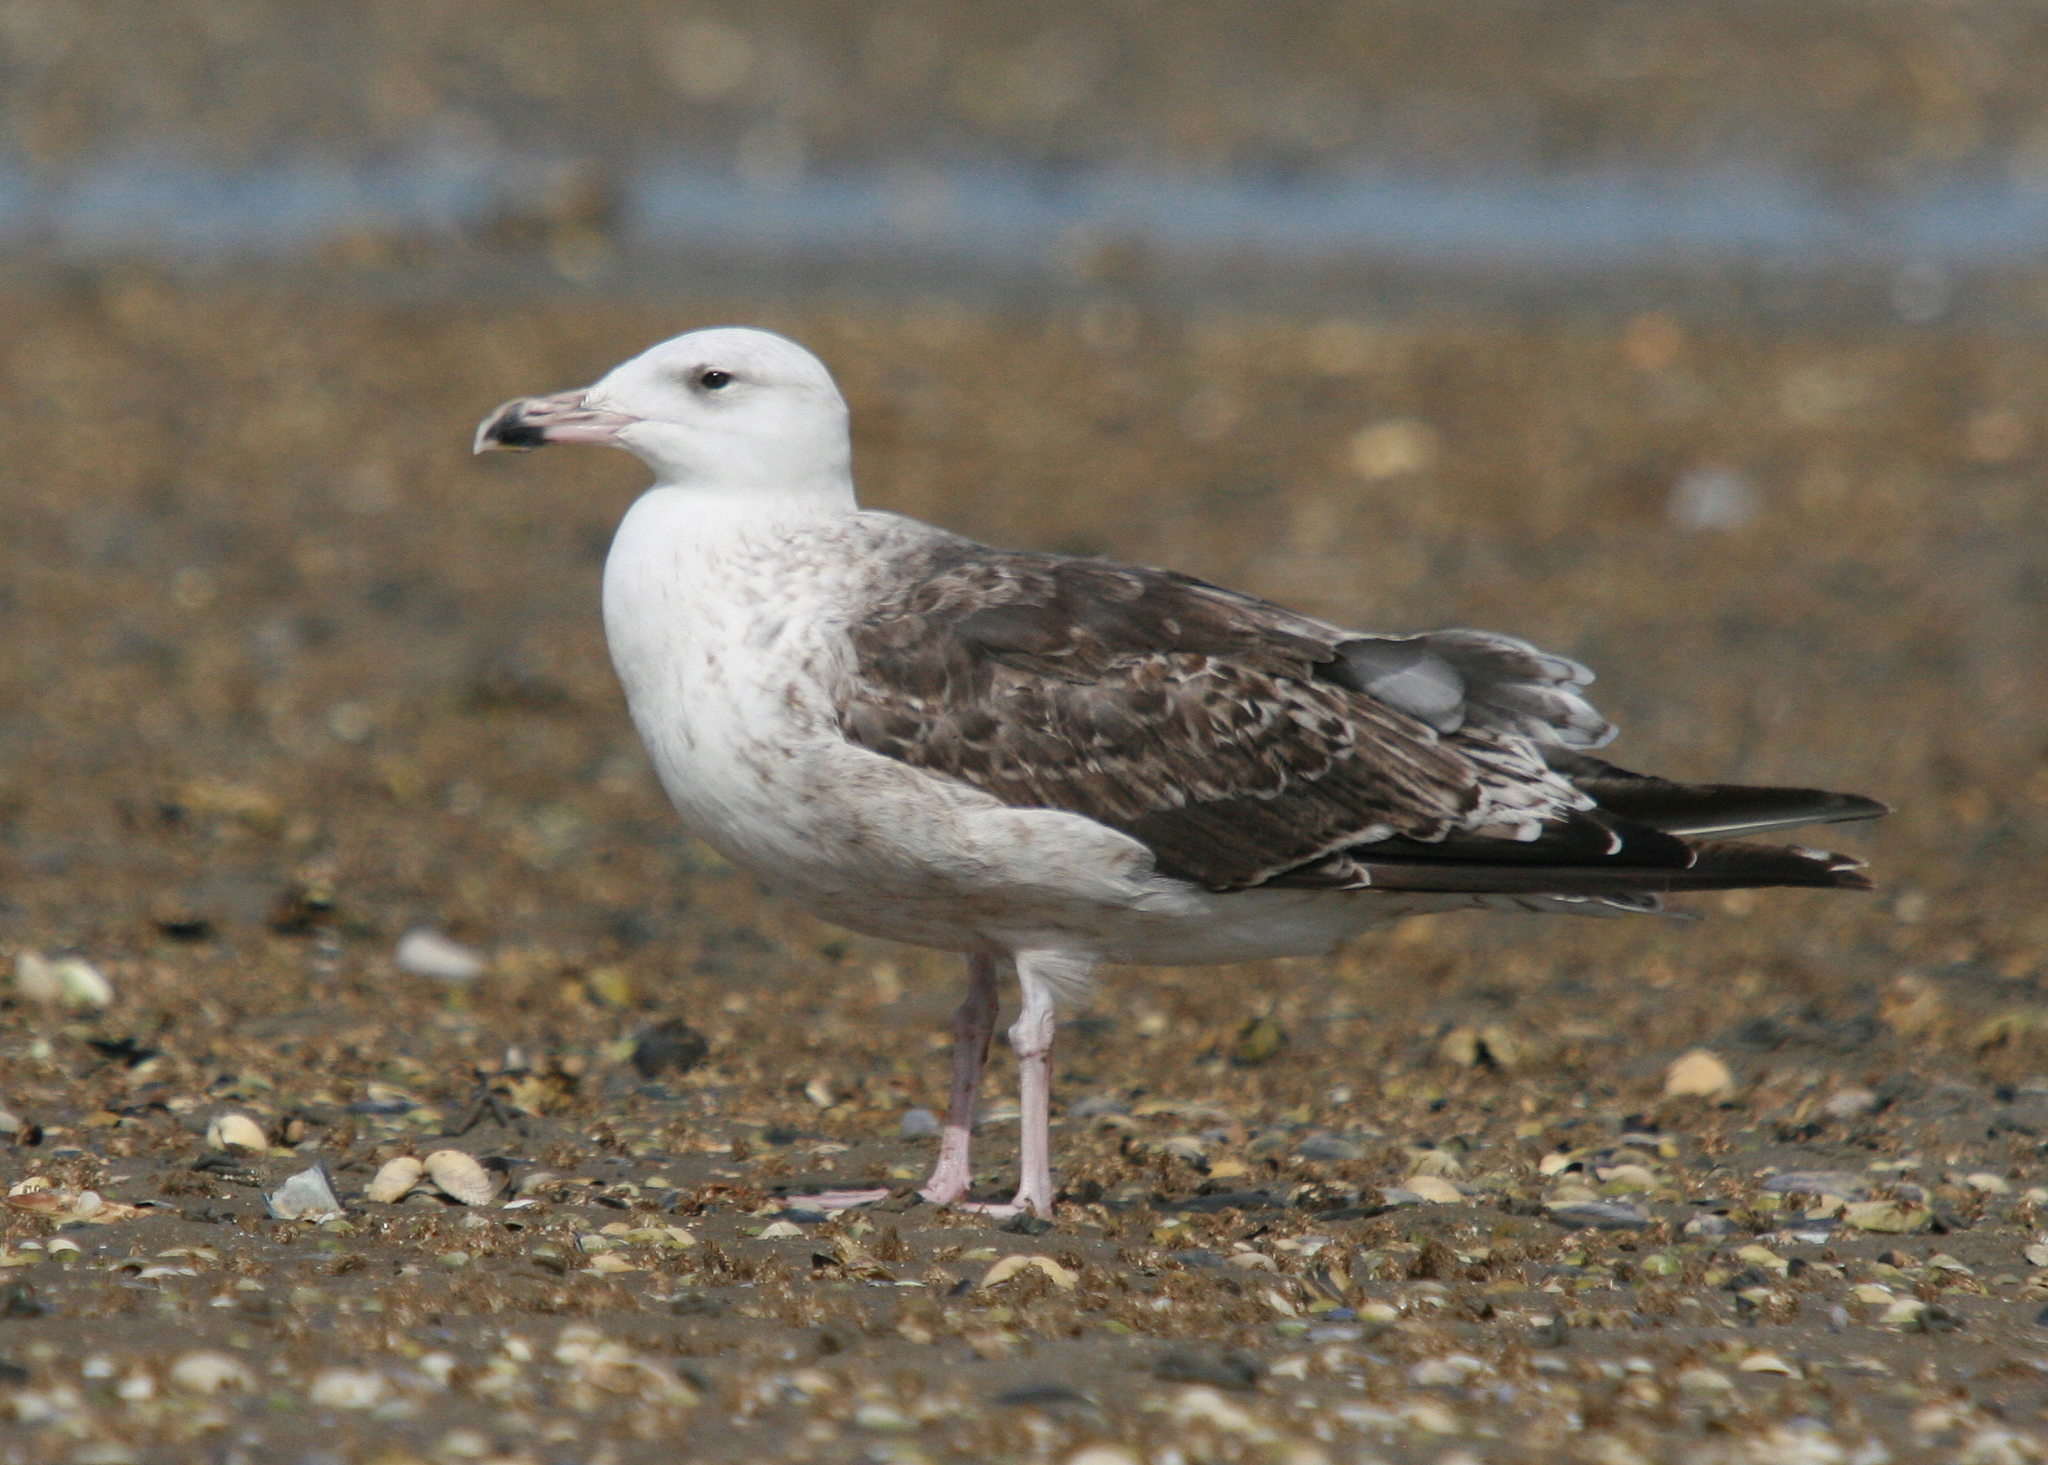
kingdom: Animalia
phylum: Chordata
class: Aves
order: Charadriiformes
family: Laridae
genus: Larus
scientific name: Larus marinus
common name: Great black-backed gull
